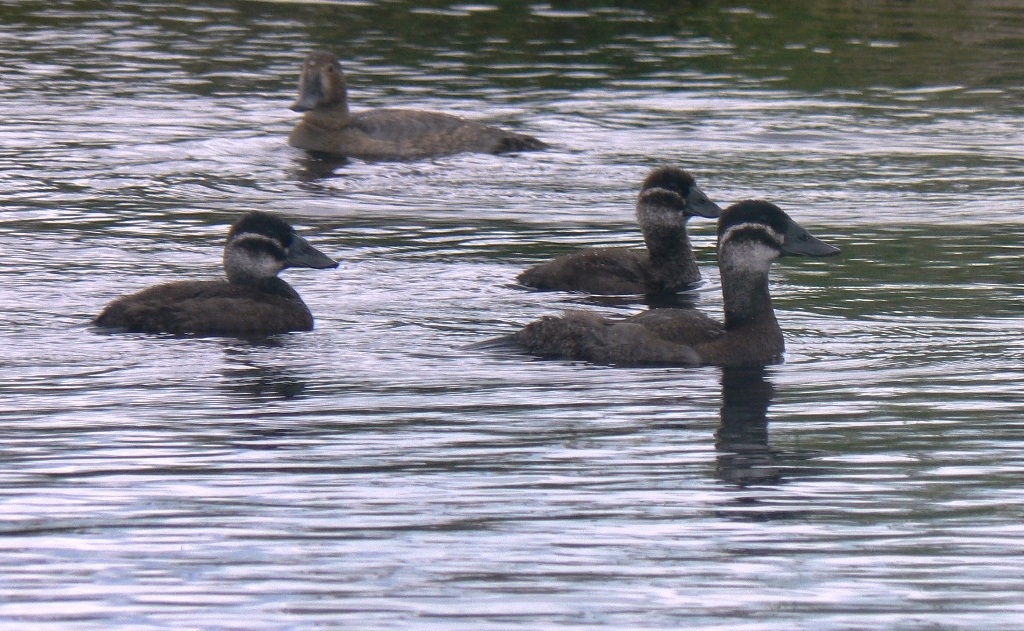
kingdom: Animalia
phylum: Chordata
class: Aves
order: Anseriformes
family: Anatidae
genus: Oxyura
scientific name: Oxyura leucocephala
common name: White-headed duck
